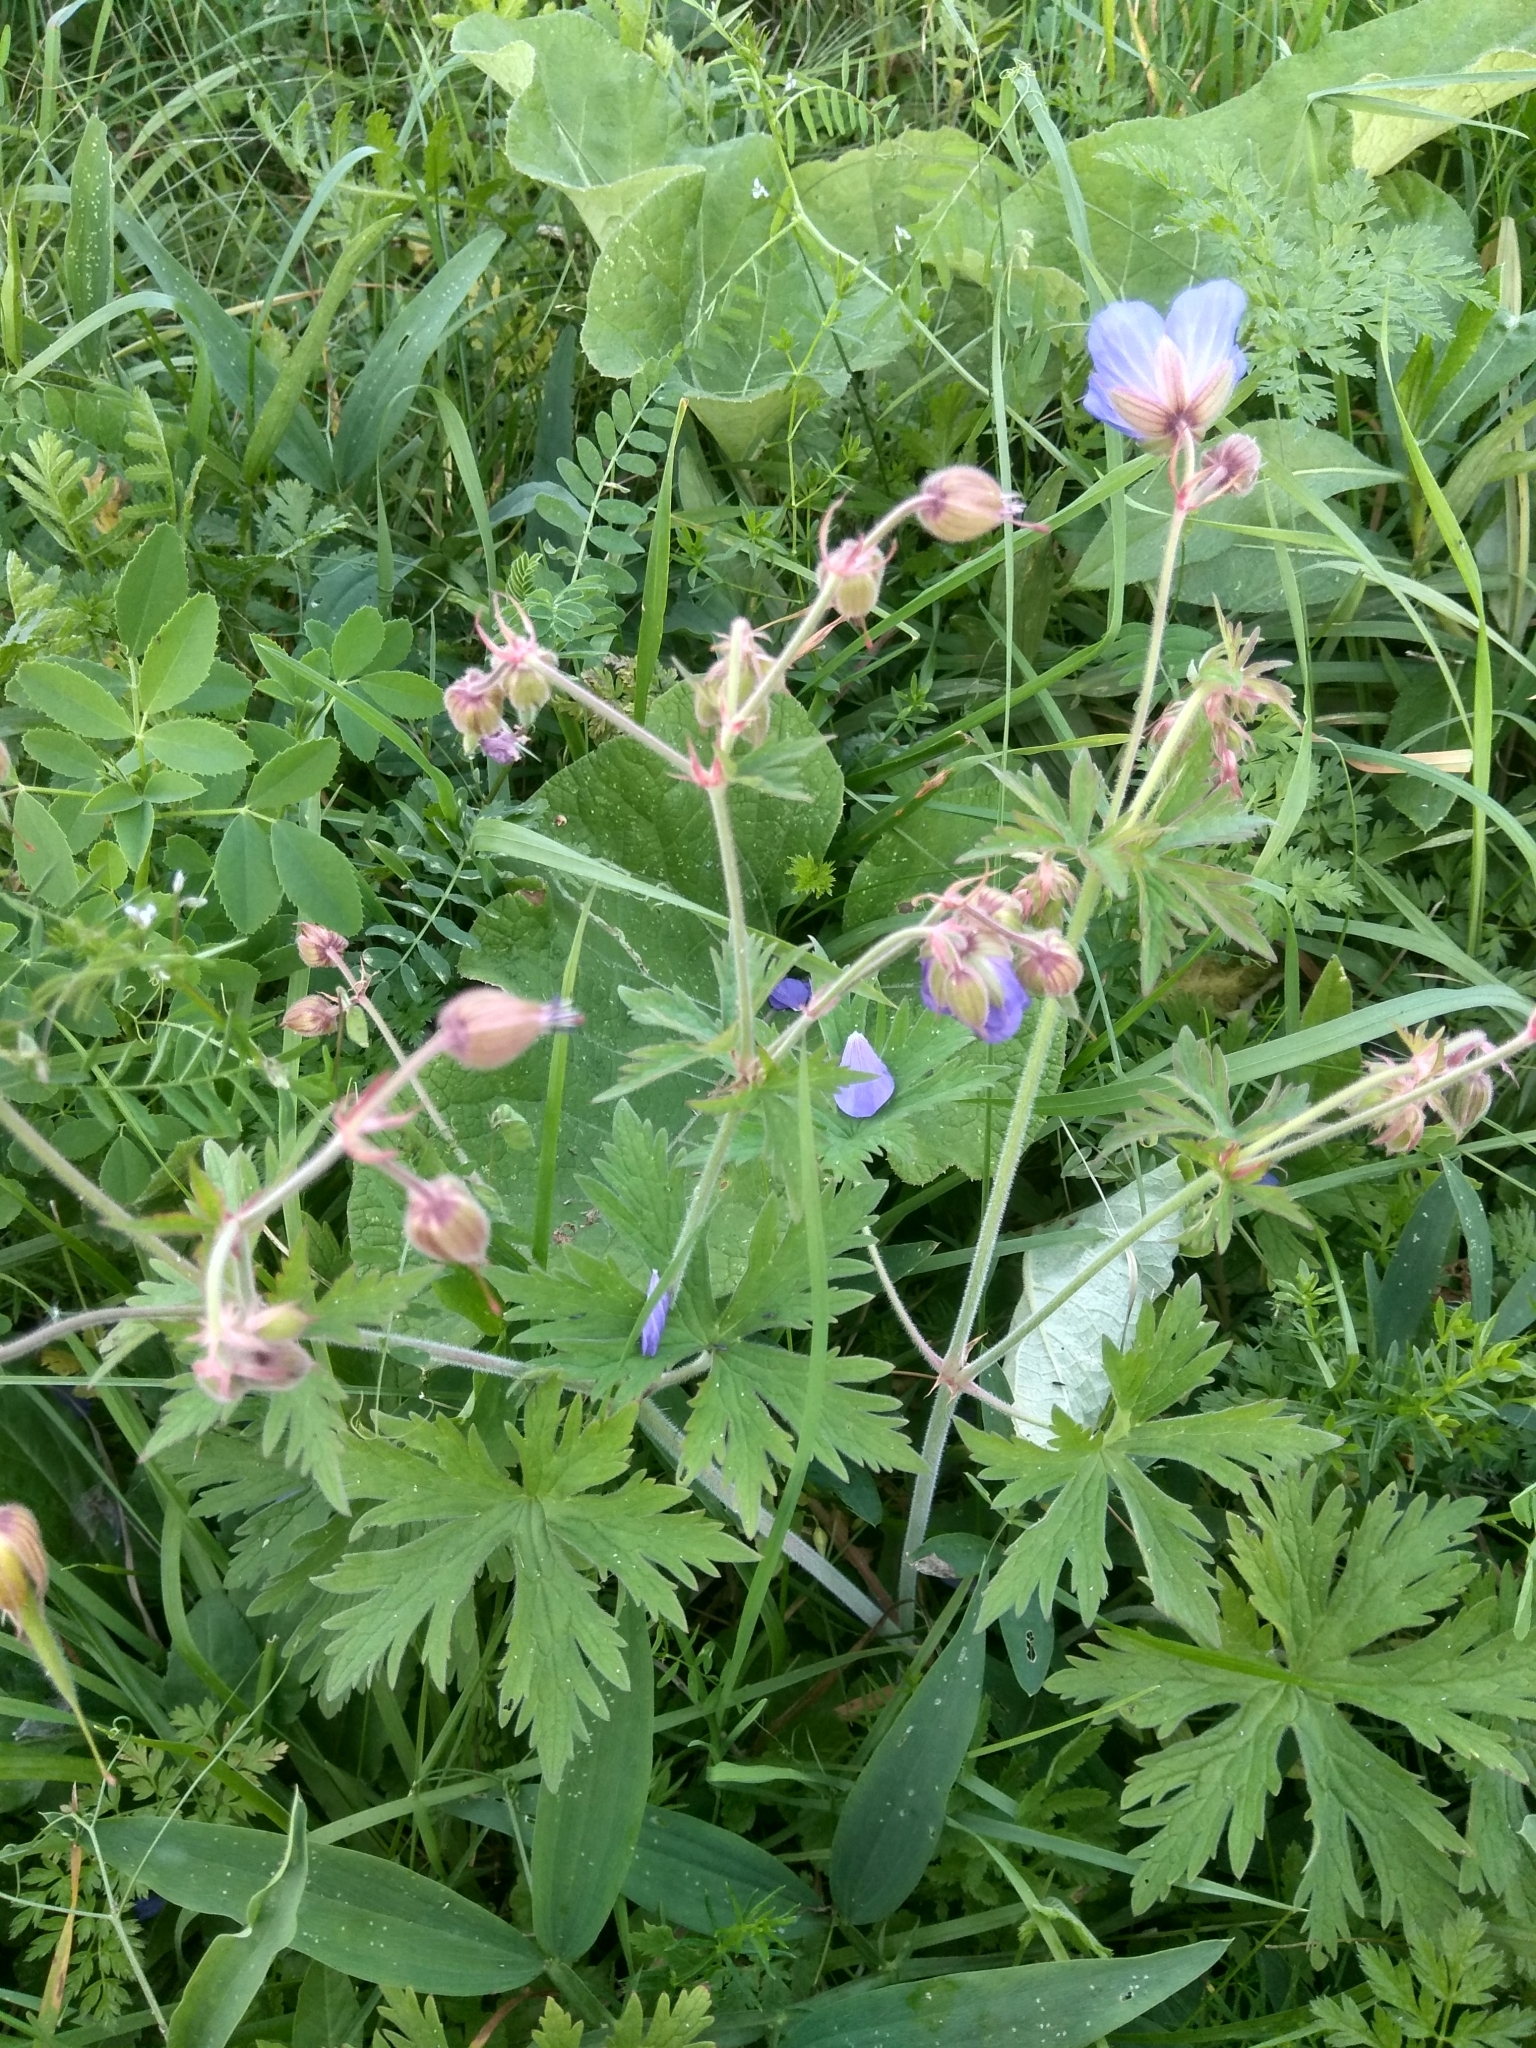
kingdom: Plantae
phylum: Tracheophyta
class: Magnoliopsida
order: Geraniales
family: Geraniaceae
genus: Geranium
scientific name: Geranium pratense
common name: Meadow crane's-bill
